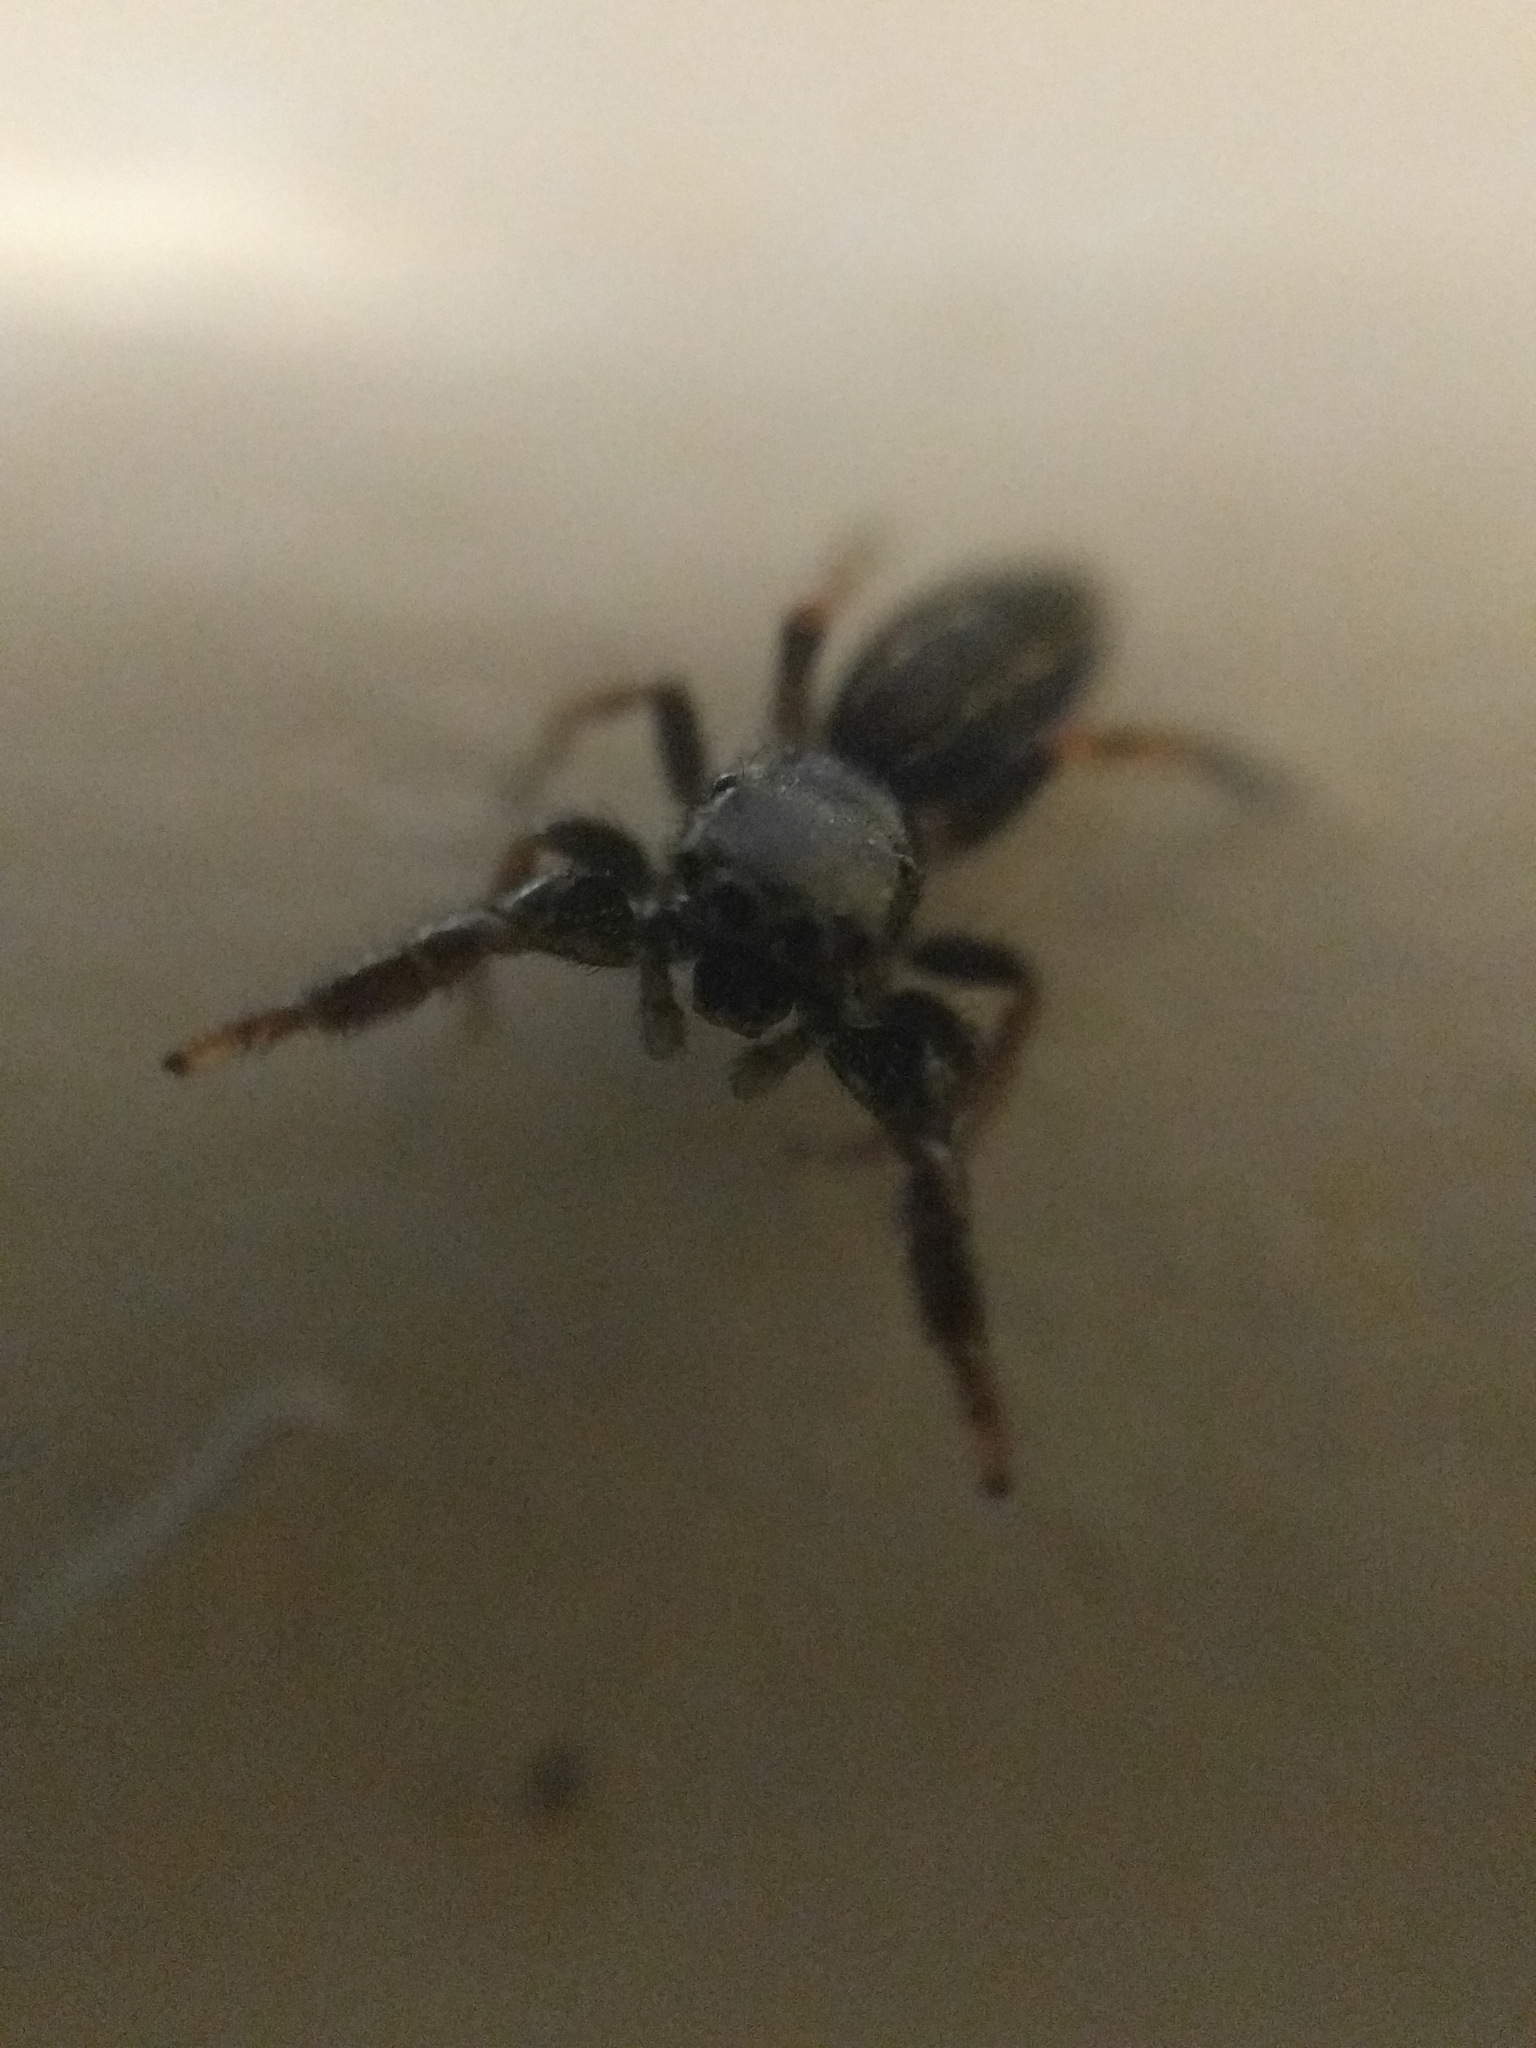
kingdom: Animalia
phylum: Arthropoda
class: Arachnida
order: Araneae
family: Salticidae
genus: Metacyrba
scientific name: Metacyrba taeniola
